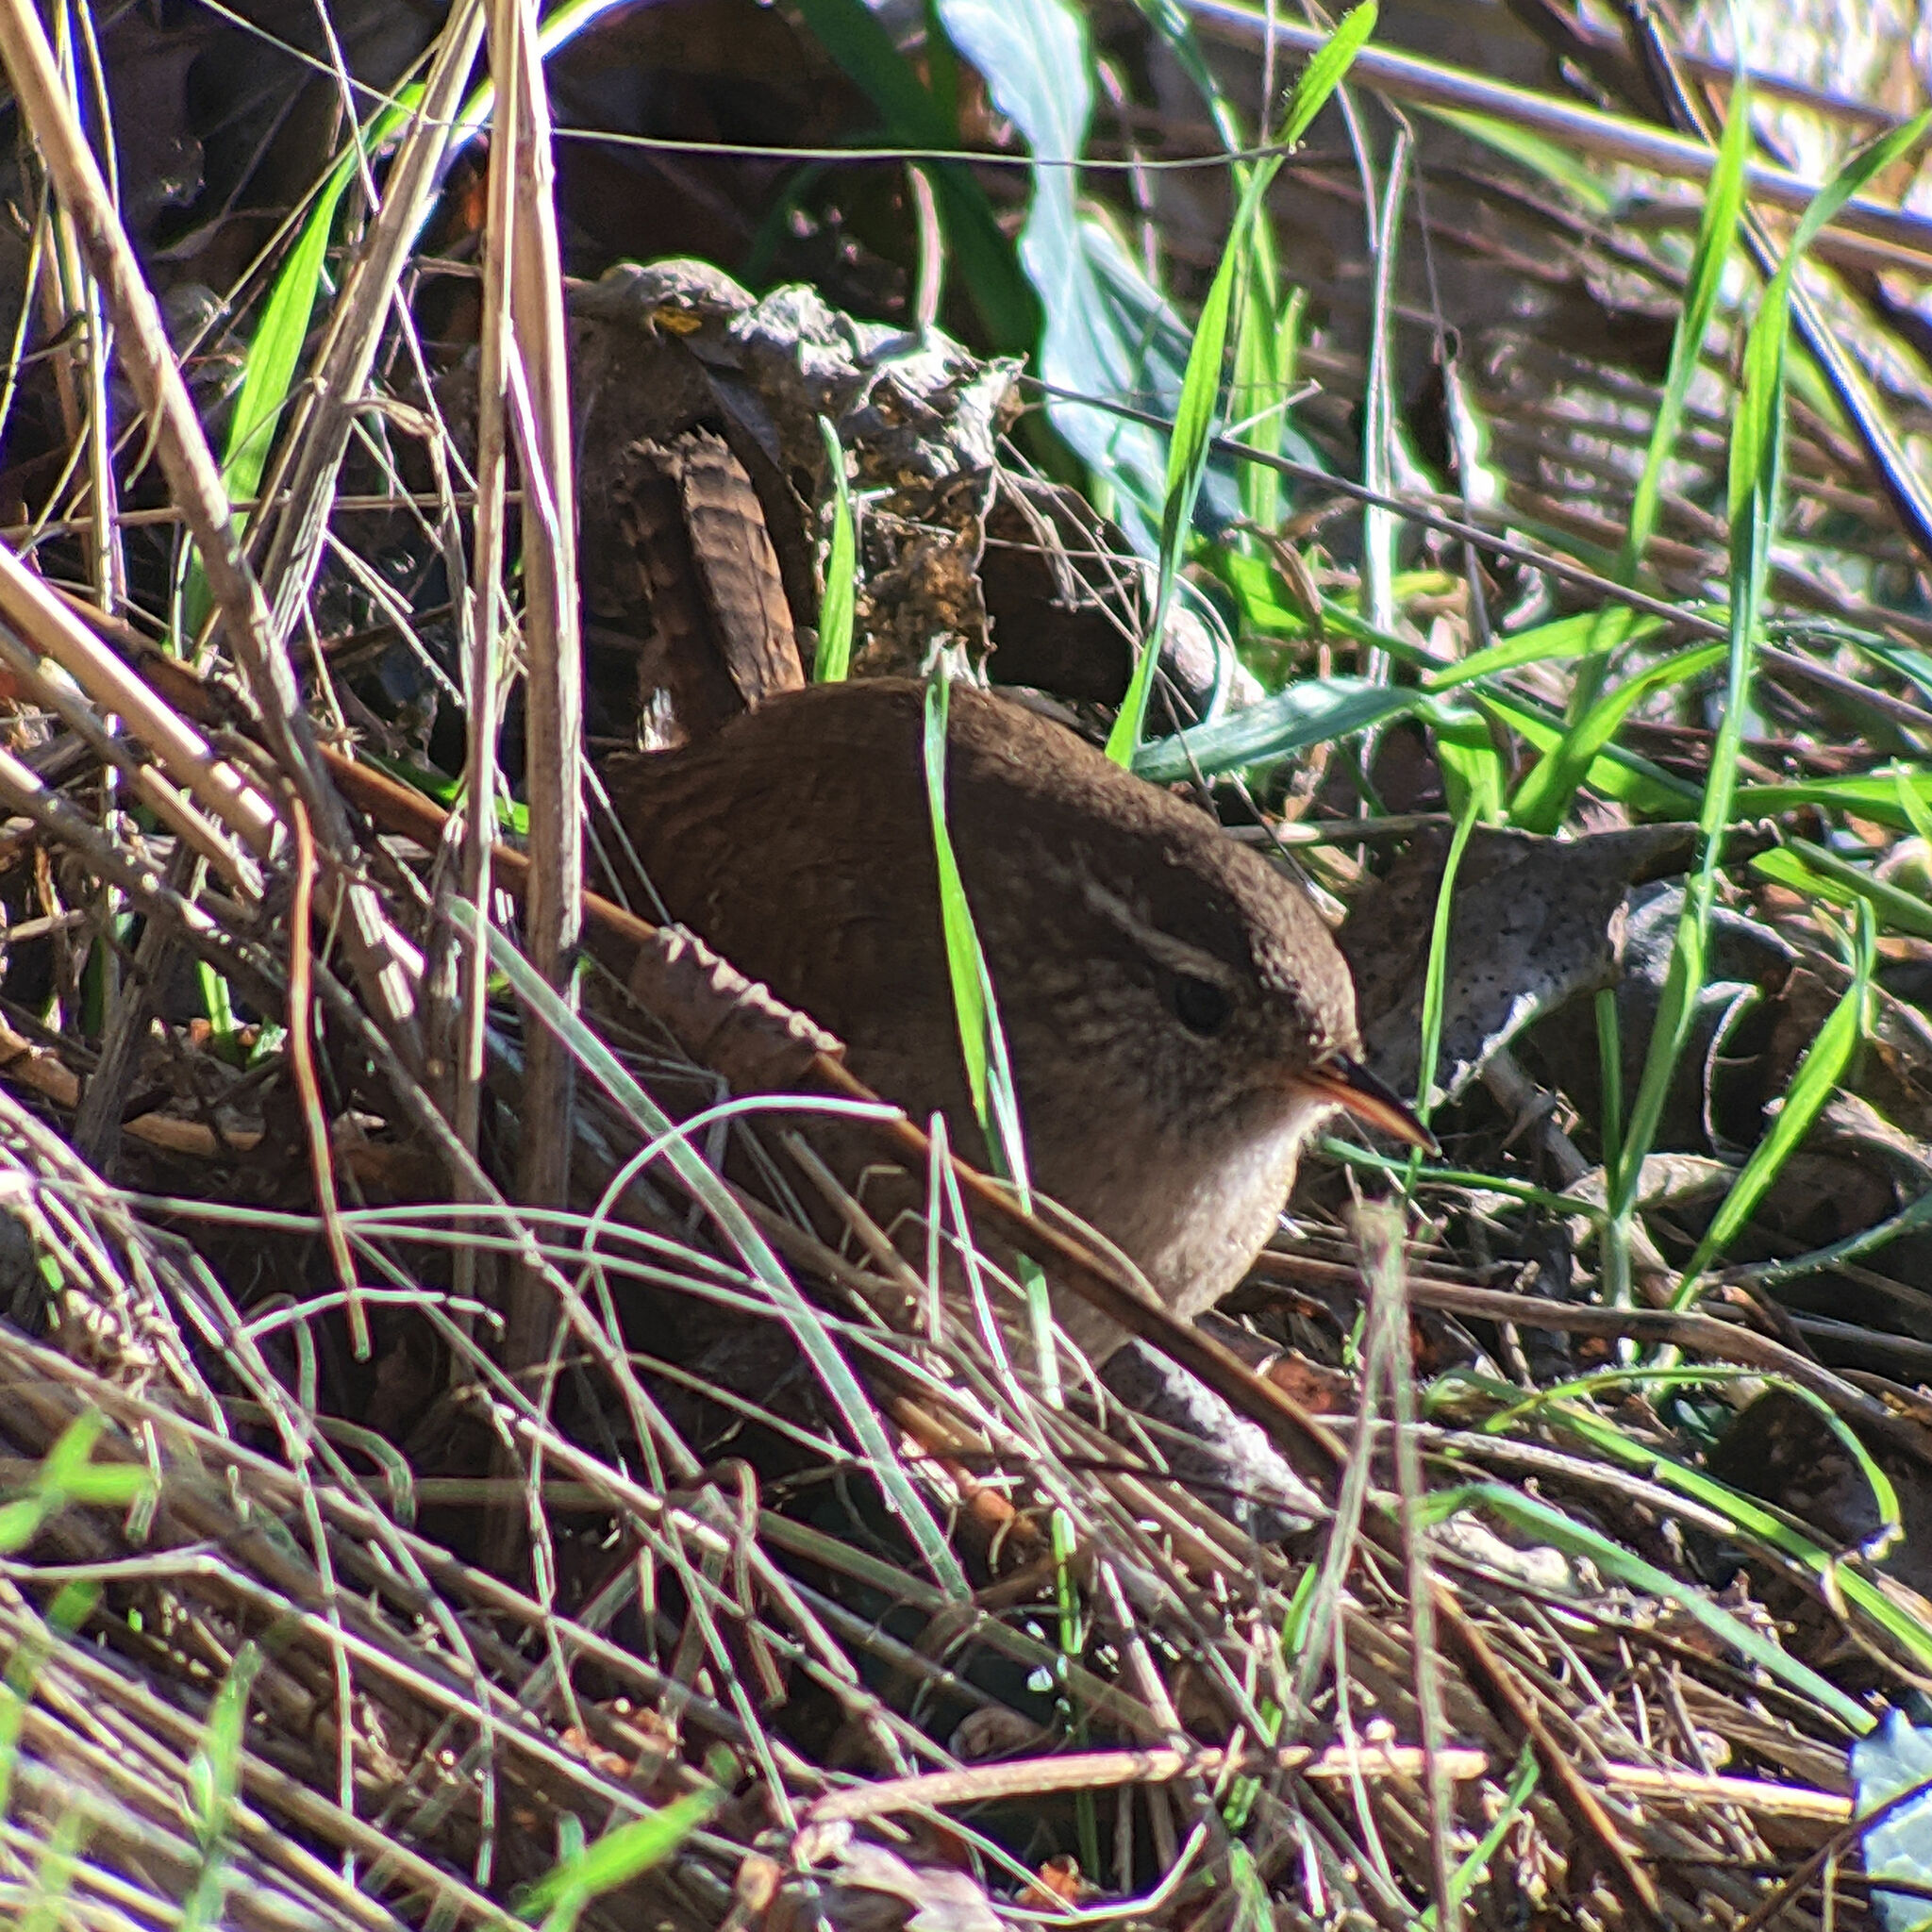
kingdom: Animalia
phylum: Chordata
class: Aves
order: Passeriformes
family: Troglodytidae
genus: Troglodytes
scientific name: Troglodytes troglodytes
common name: Eurasian wren
